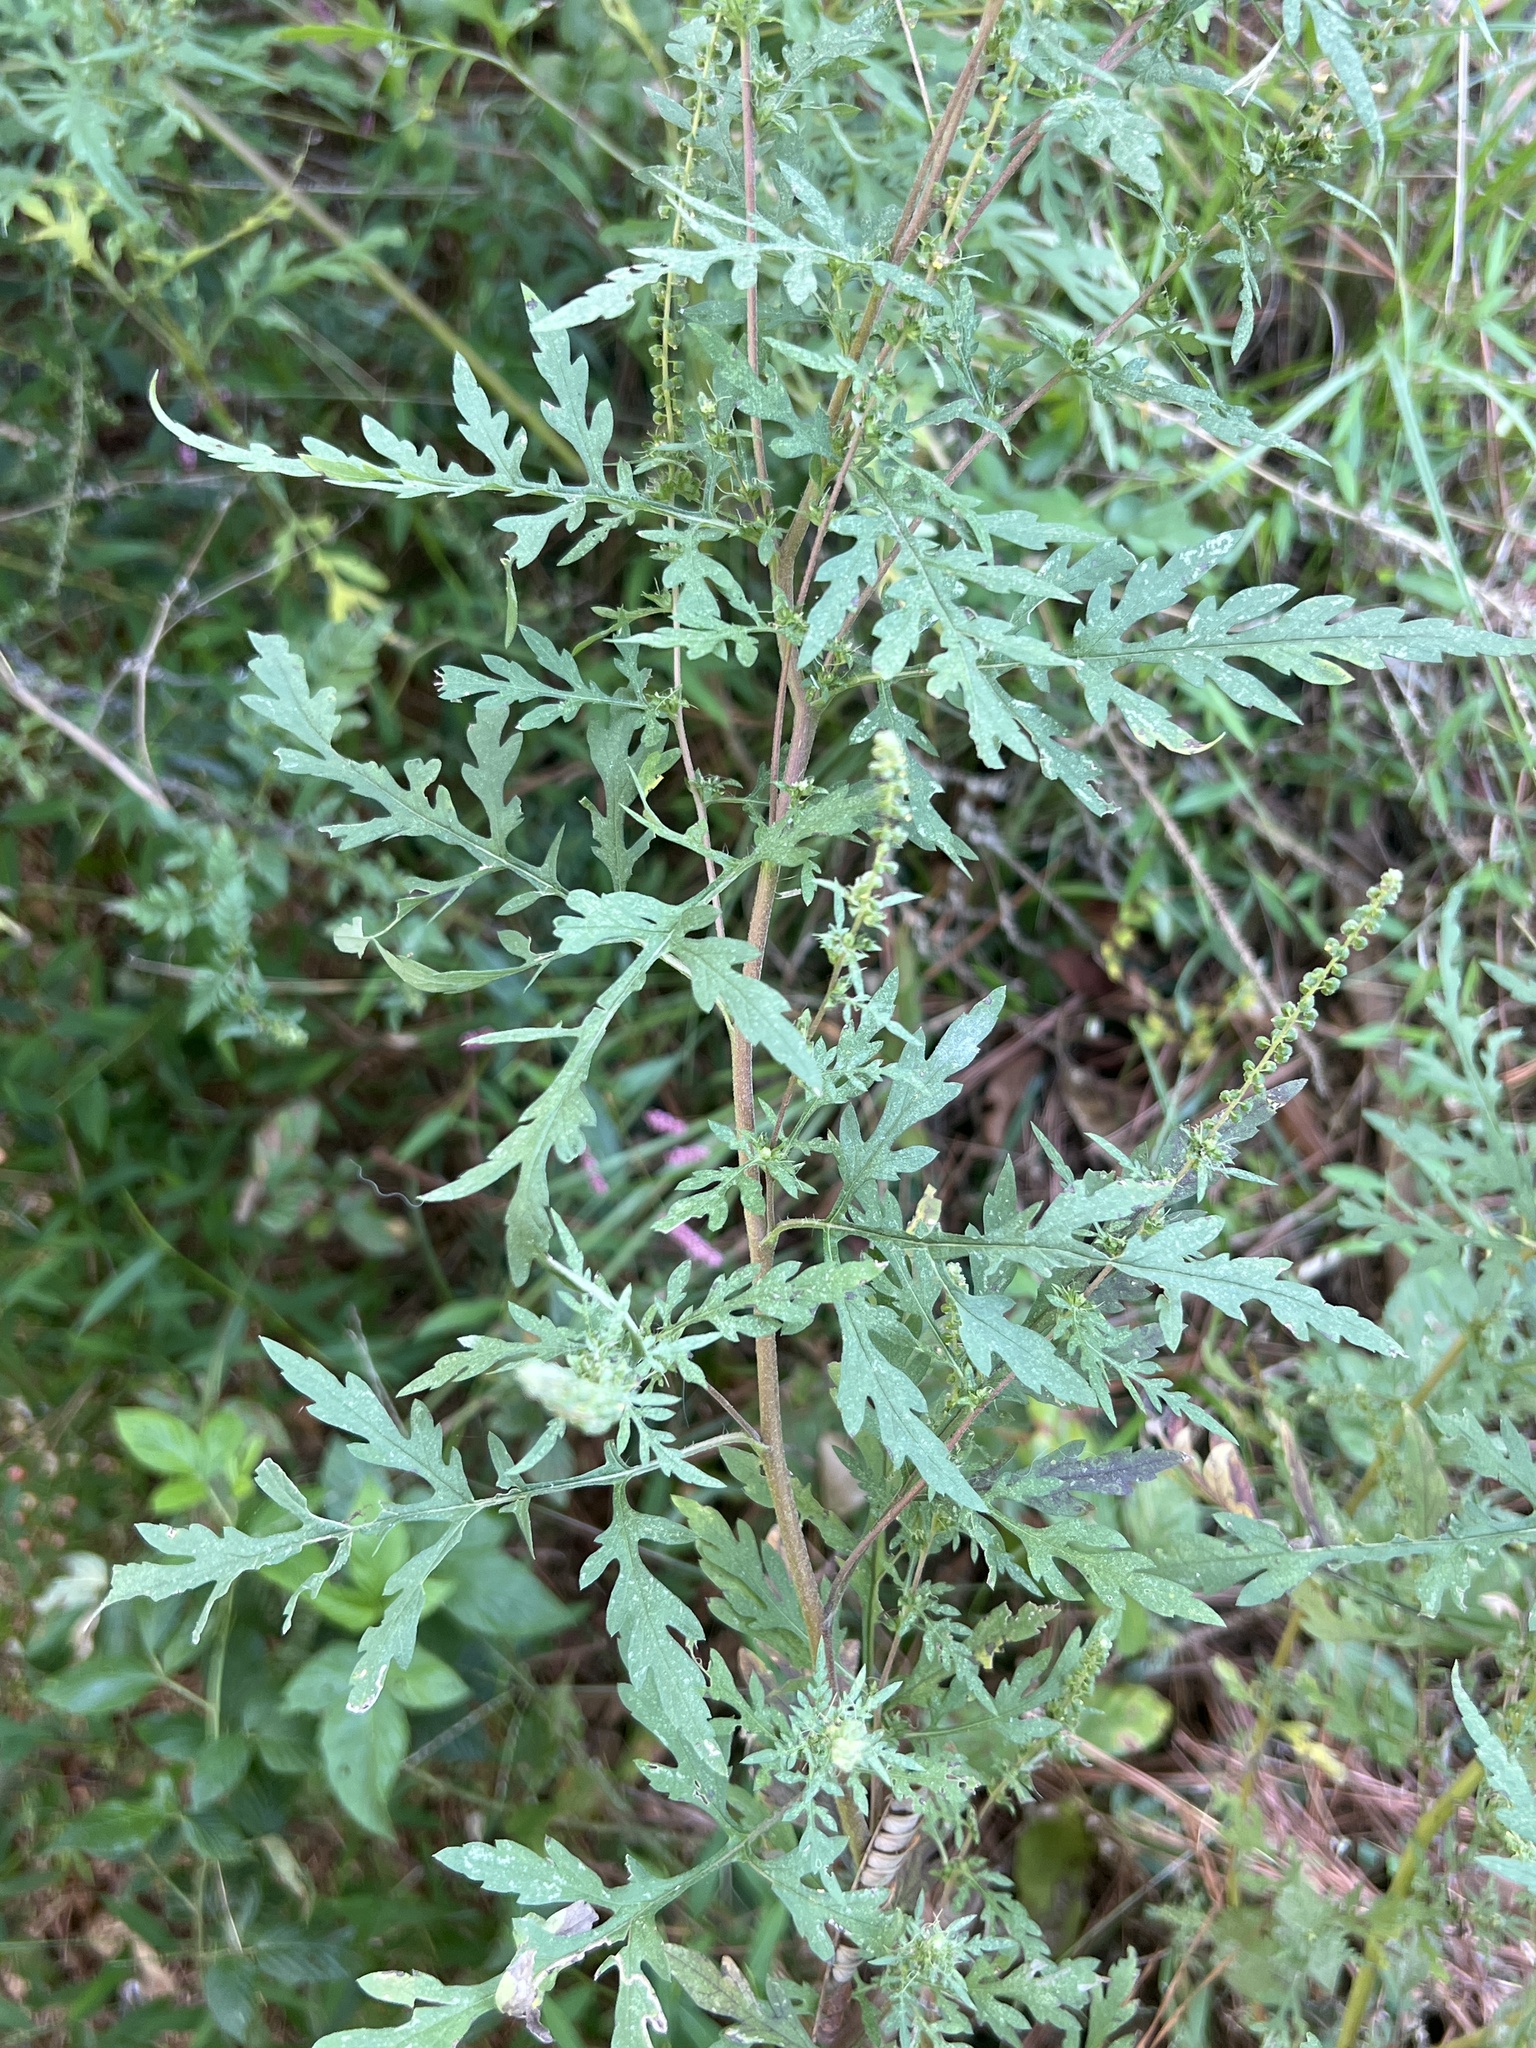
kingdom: Plantae
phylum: Tracheophyta
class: Magnoliopsida
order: Asterales
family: Asteraceae
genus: Ambrosia
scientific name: Ambrosia artemisiifolia
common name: Annual ragweed
